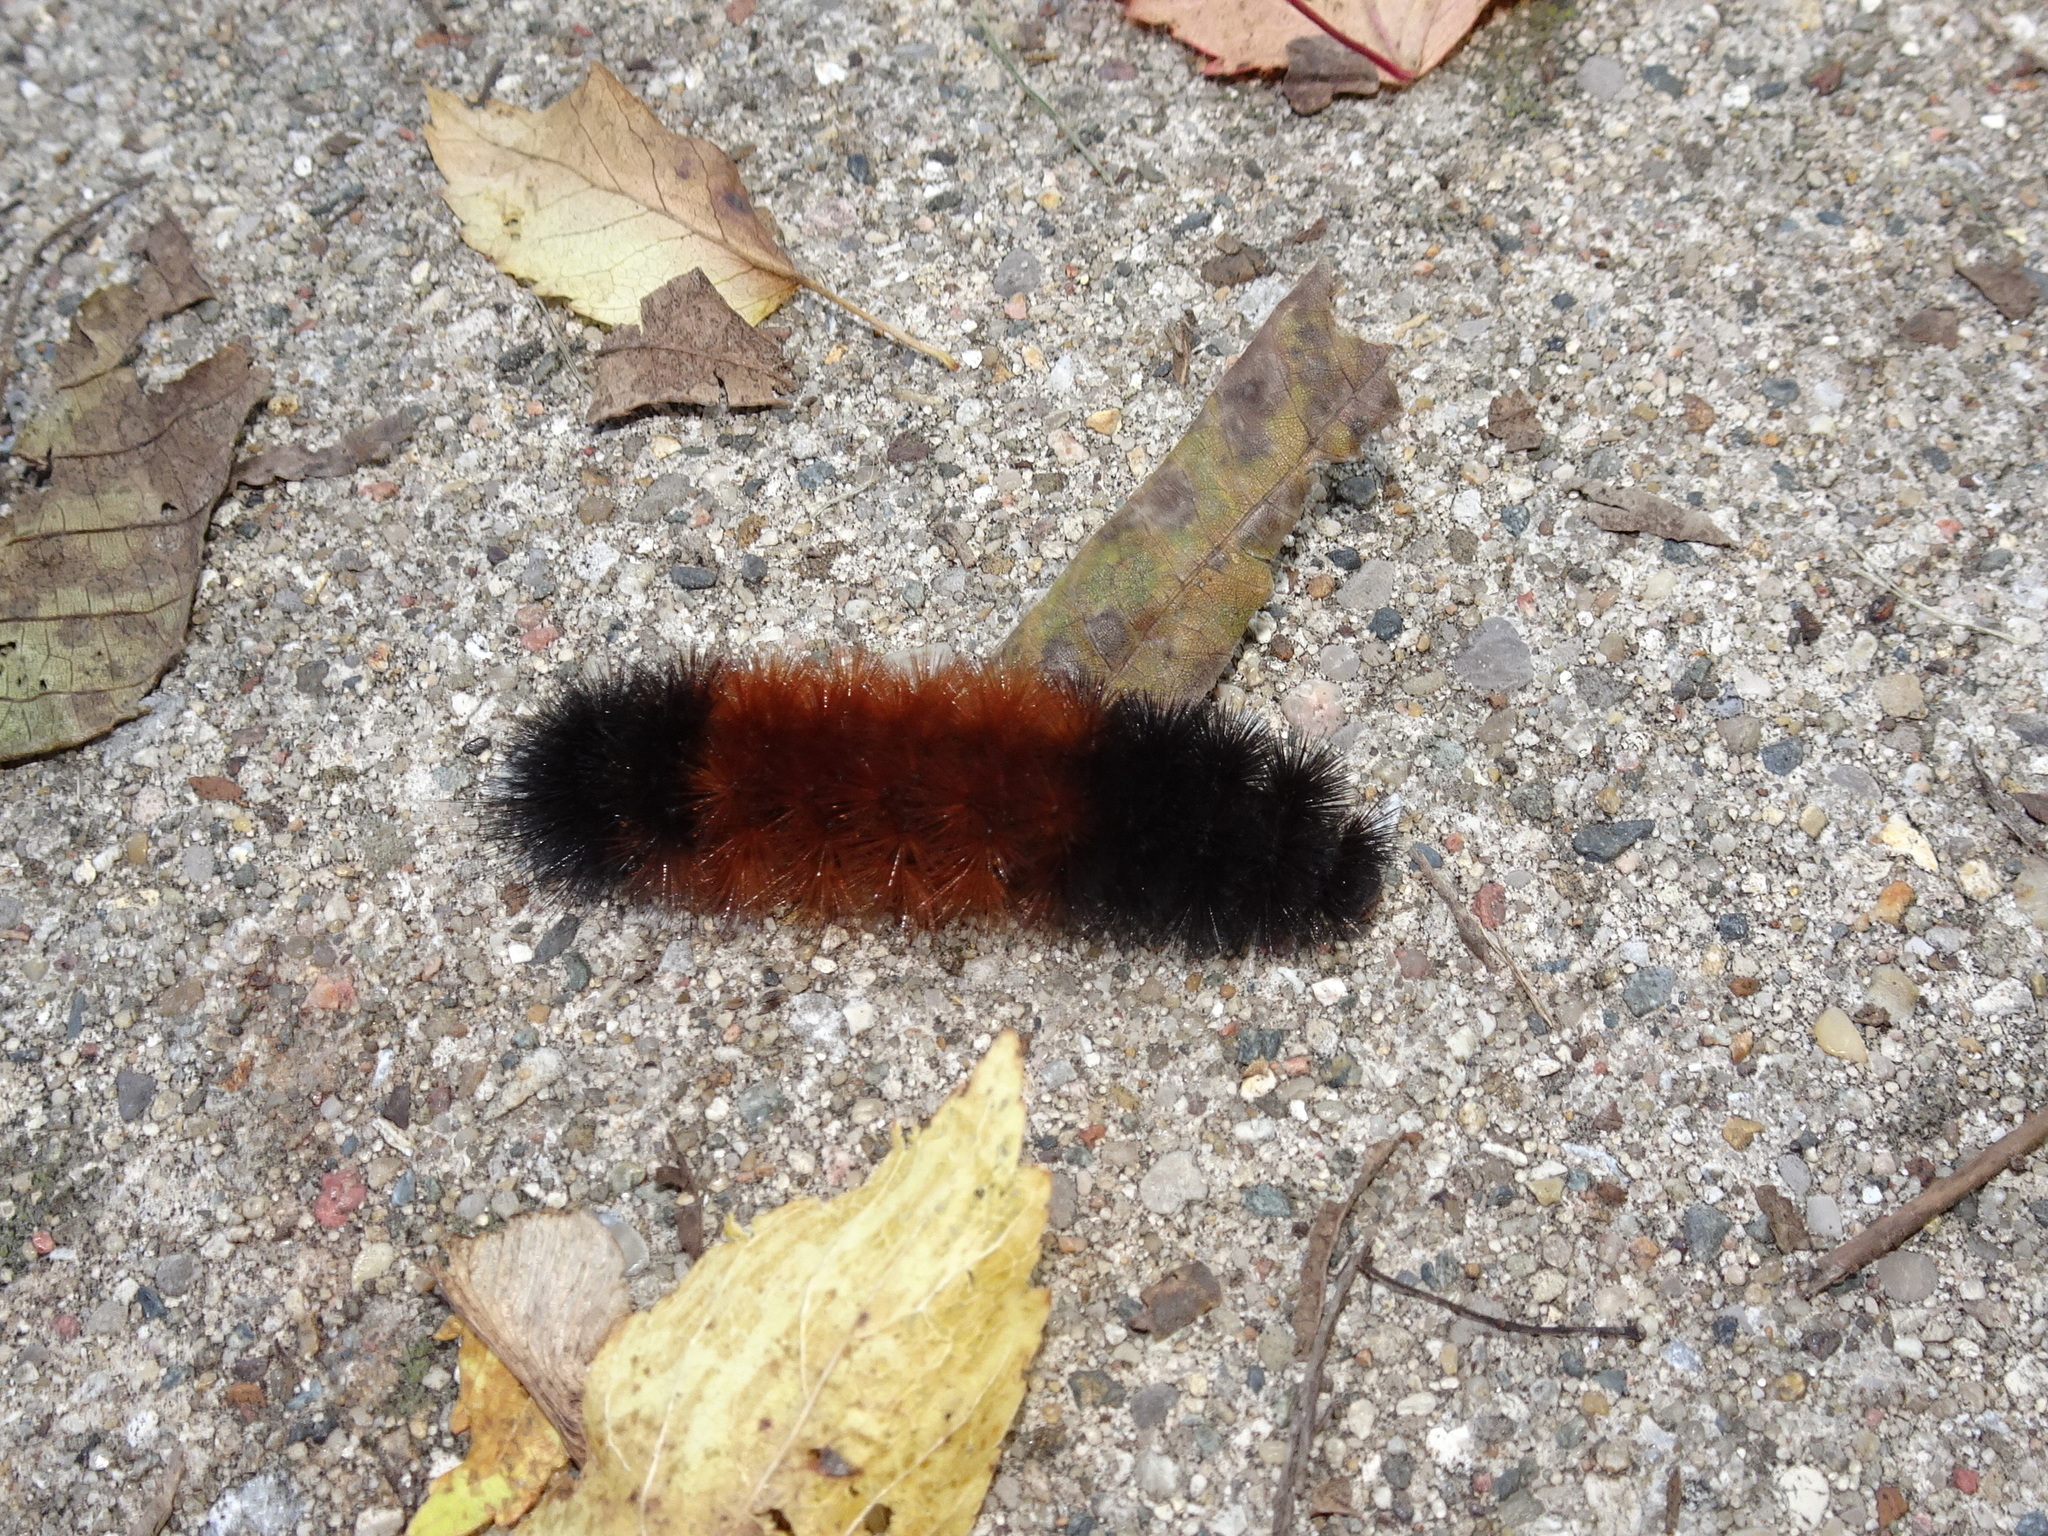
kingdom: Animalia
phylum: Arthropoda
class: Insecta
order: Lepidoptera
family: Erebidae
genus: Pyrrharctia
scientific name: Pyrrharctia isabella
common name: Isabella tiger moth
